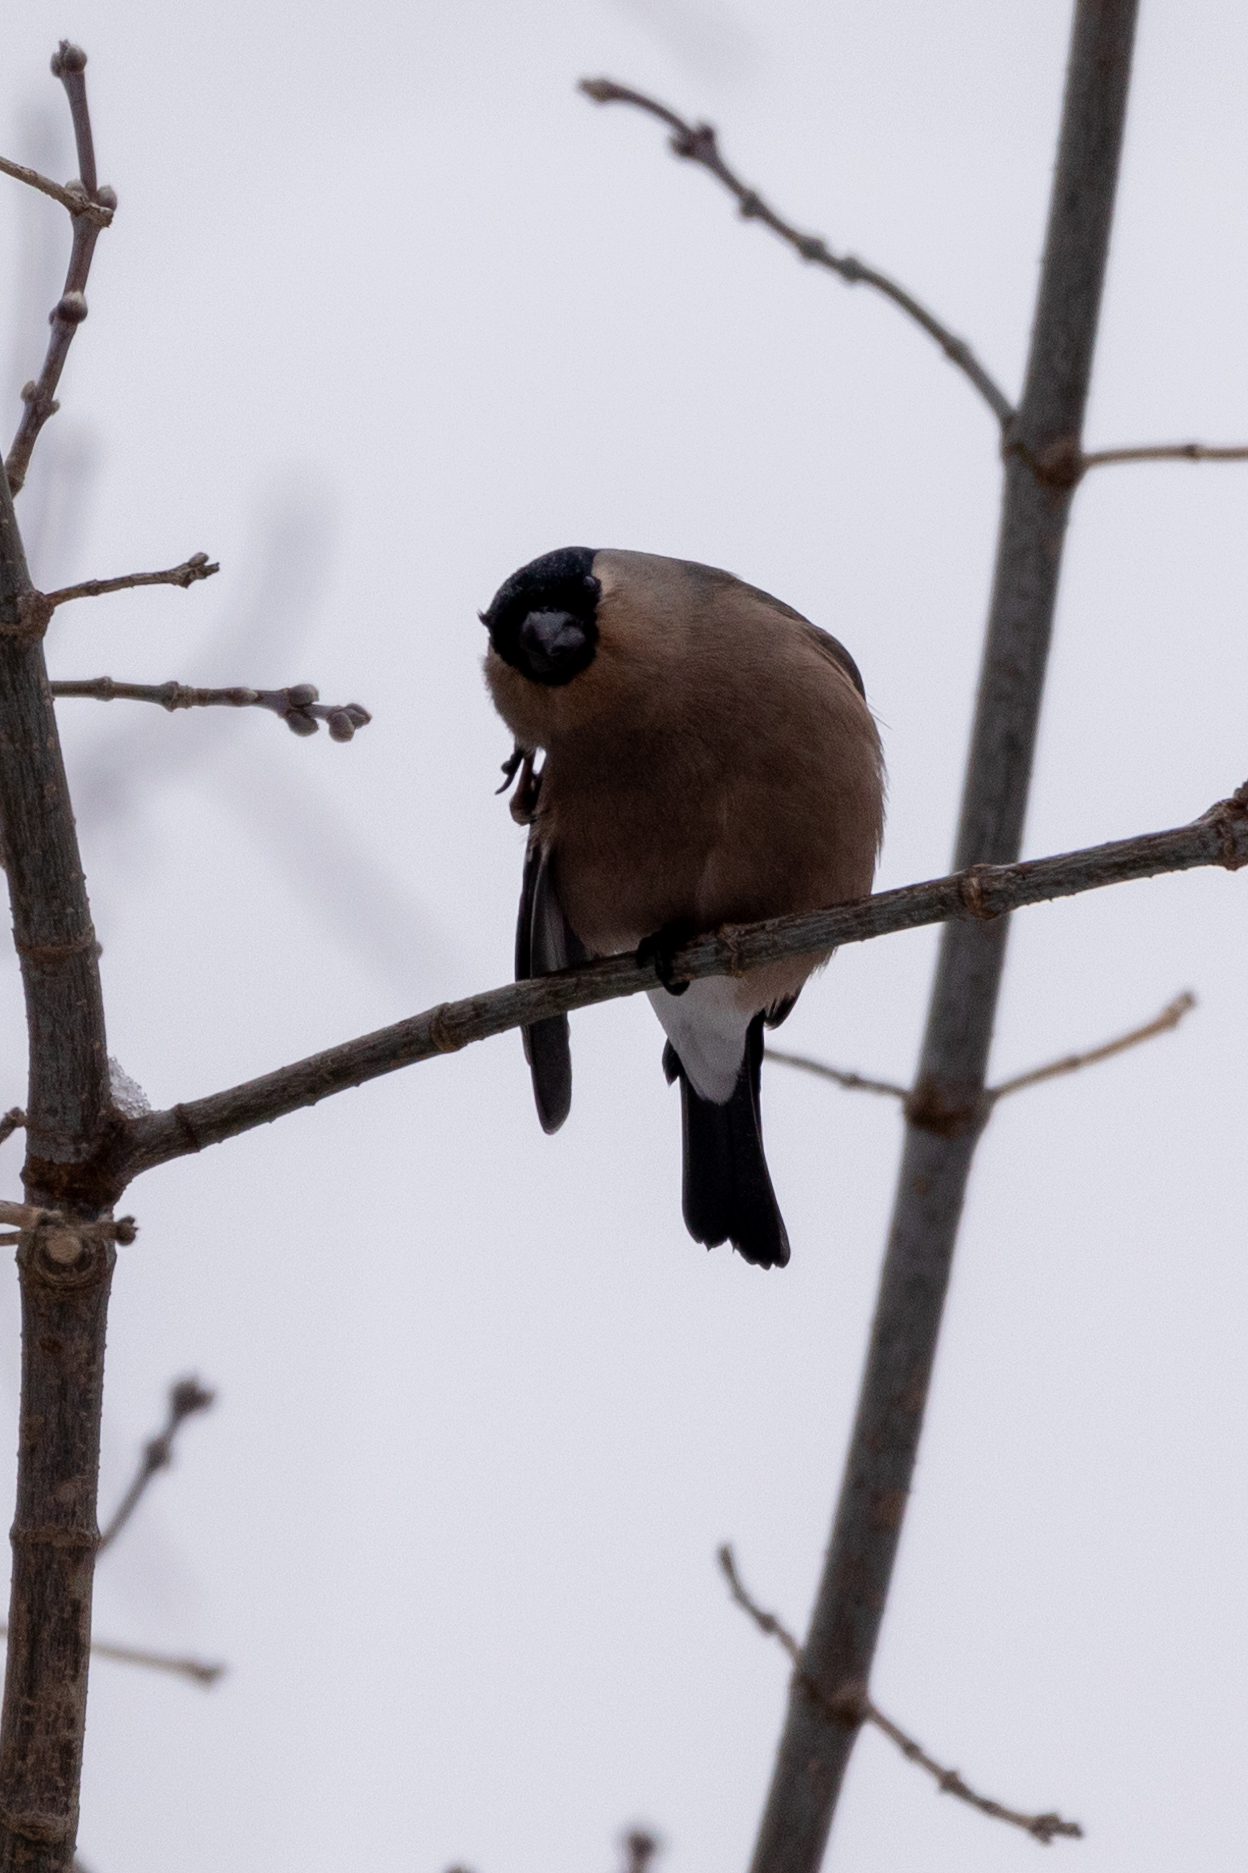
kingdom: Animalia
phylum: Chordata
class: Aves
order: Passeriformes
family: Fringillidae
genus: Pyrrhula
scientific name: Pyrrhula pyrrhula
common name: Eurasian bullfinch
